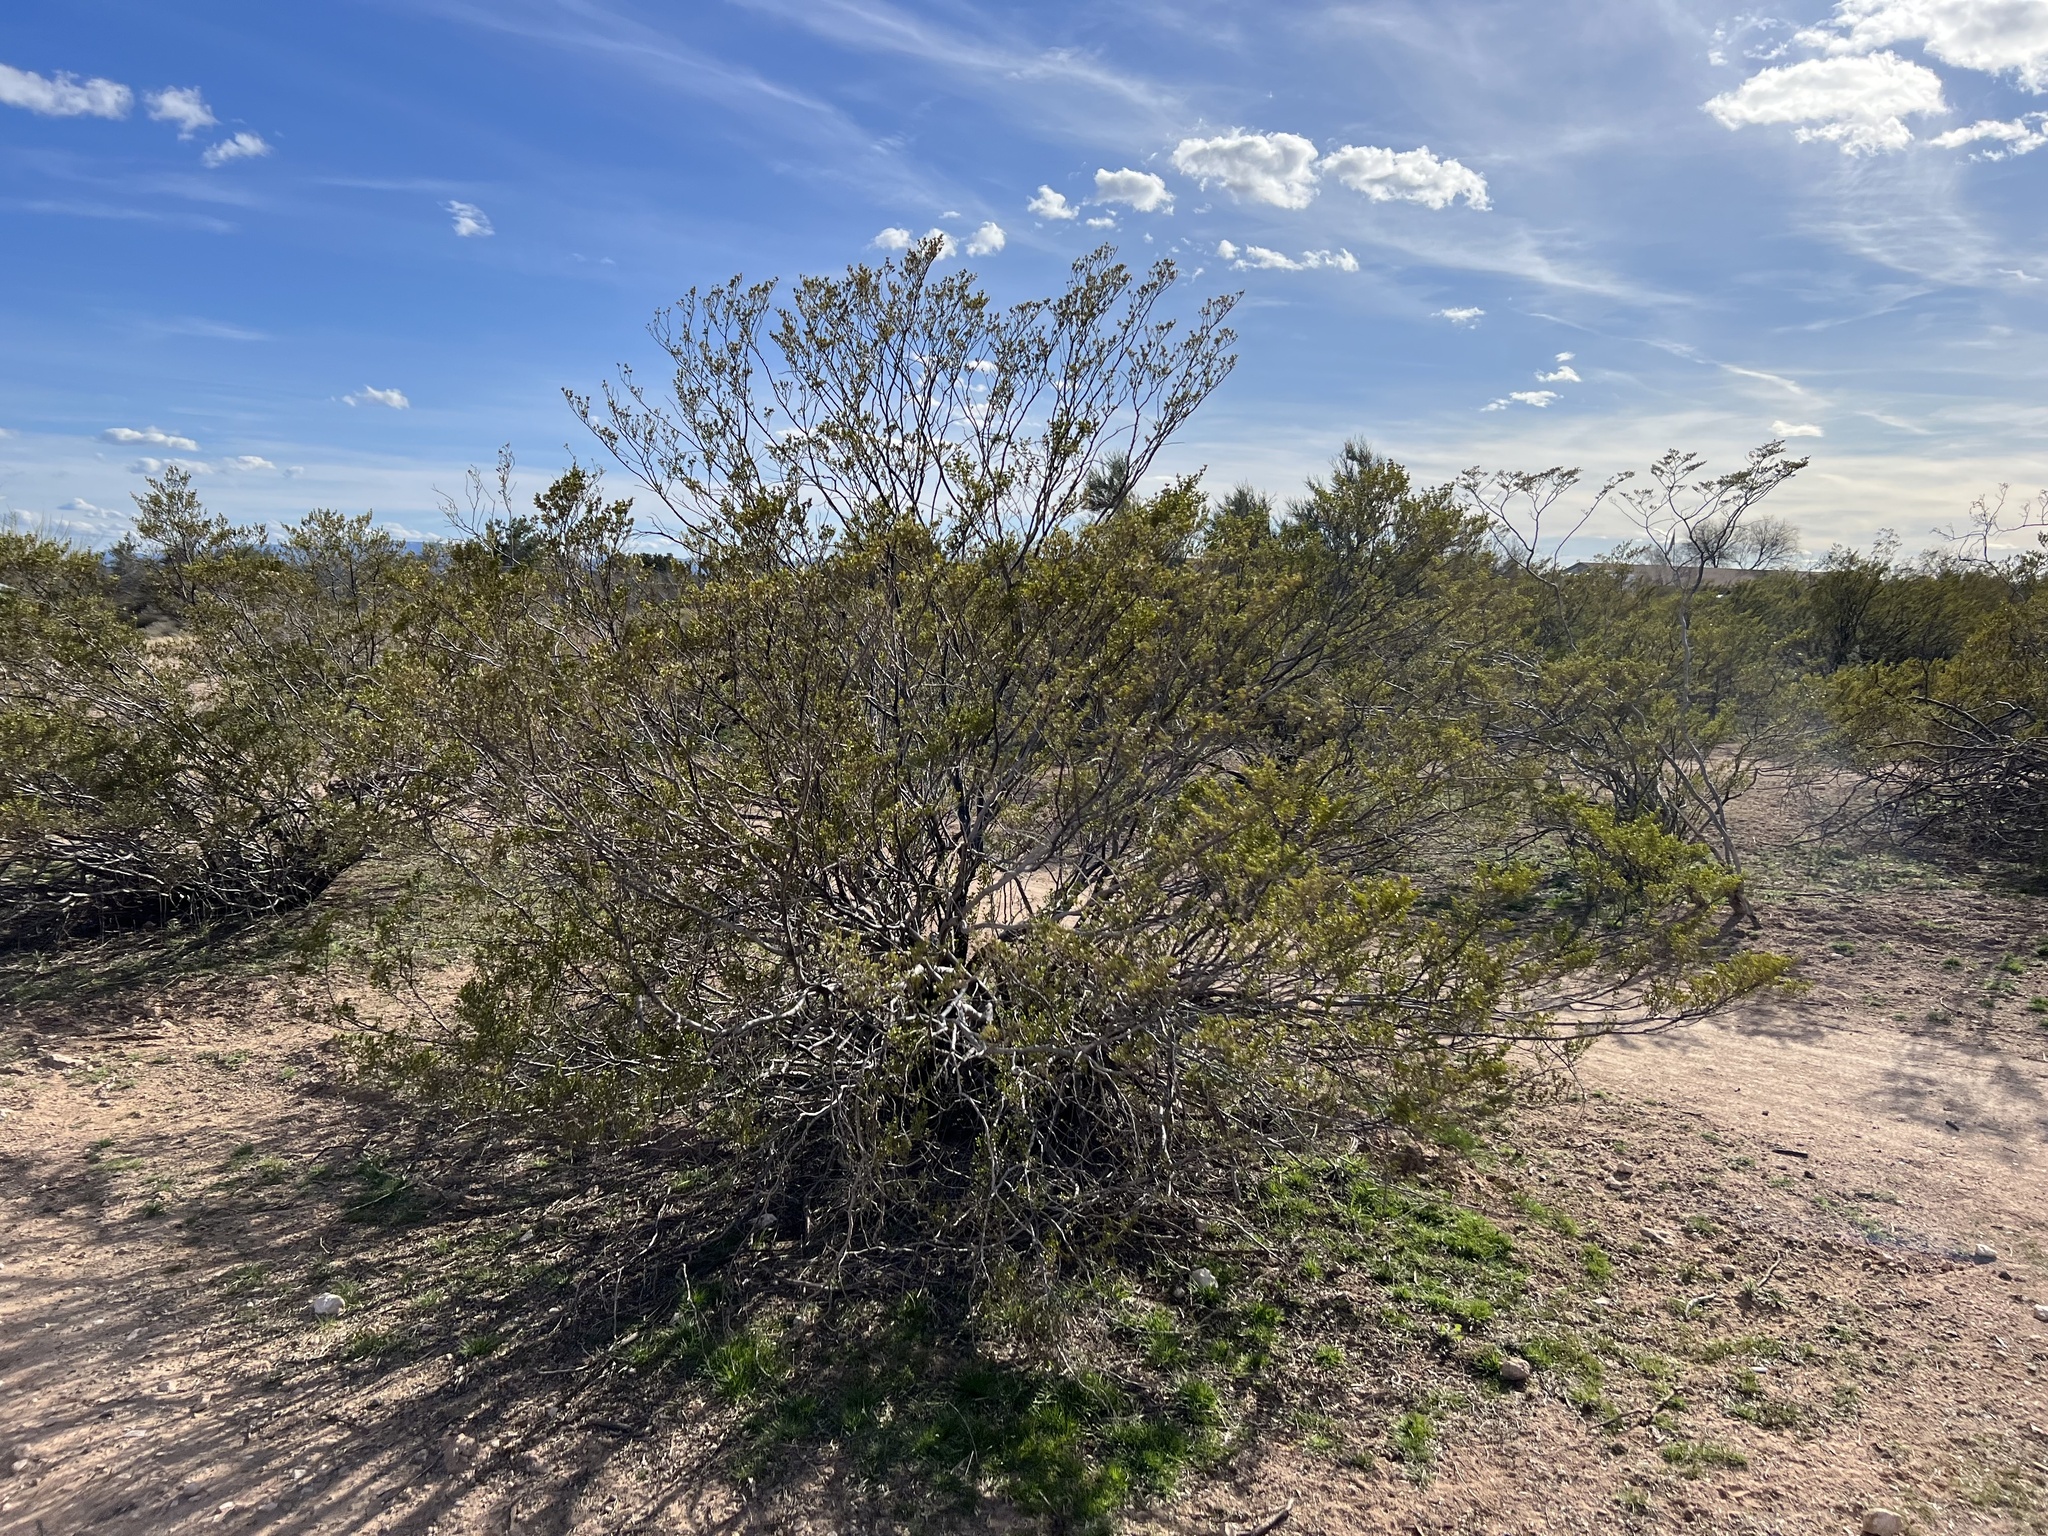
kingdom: Plantae
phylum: Tracheophyta
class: Magnoliopsida
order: Zygophyllales
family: Zygophyllaceae
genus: Larrea
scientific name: Larrea tridentata
